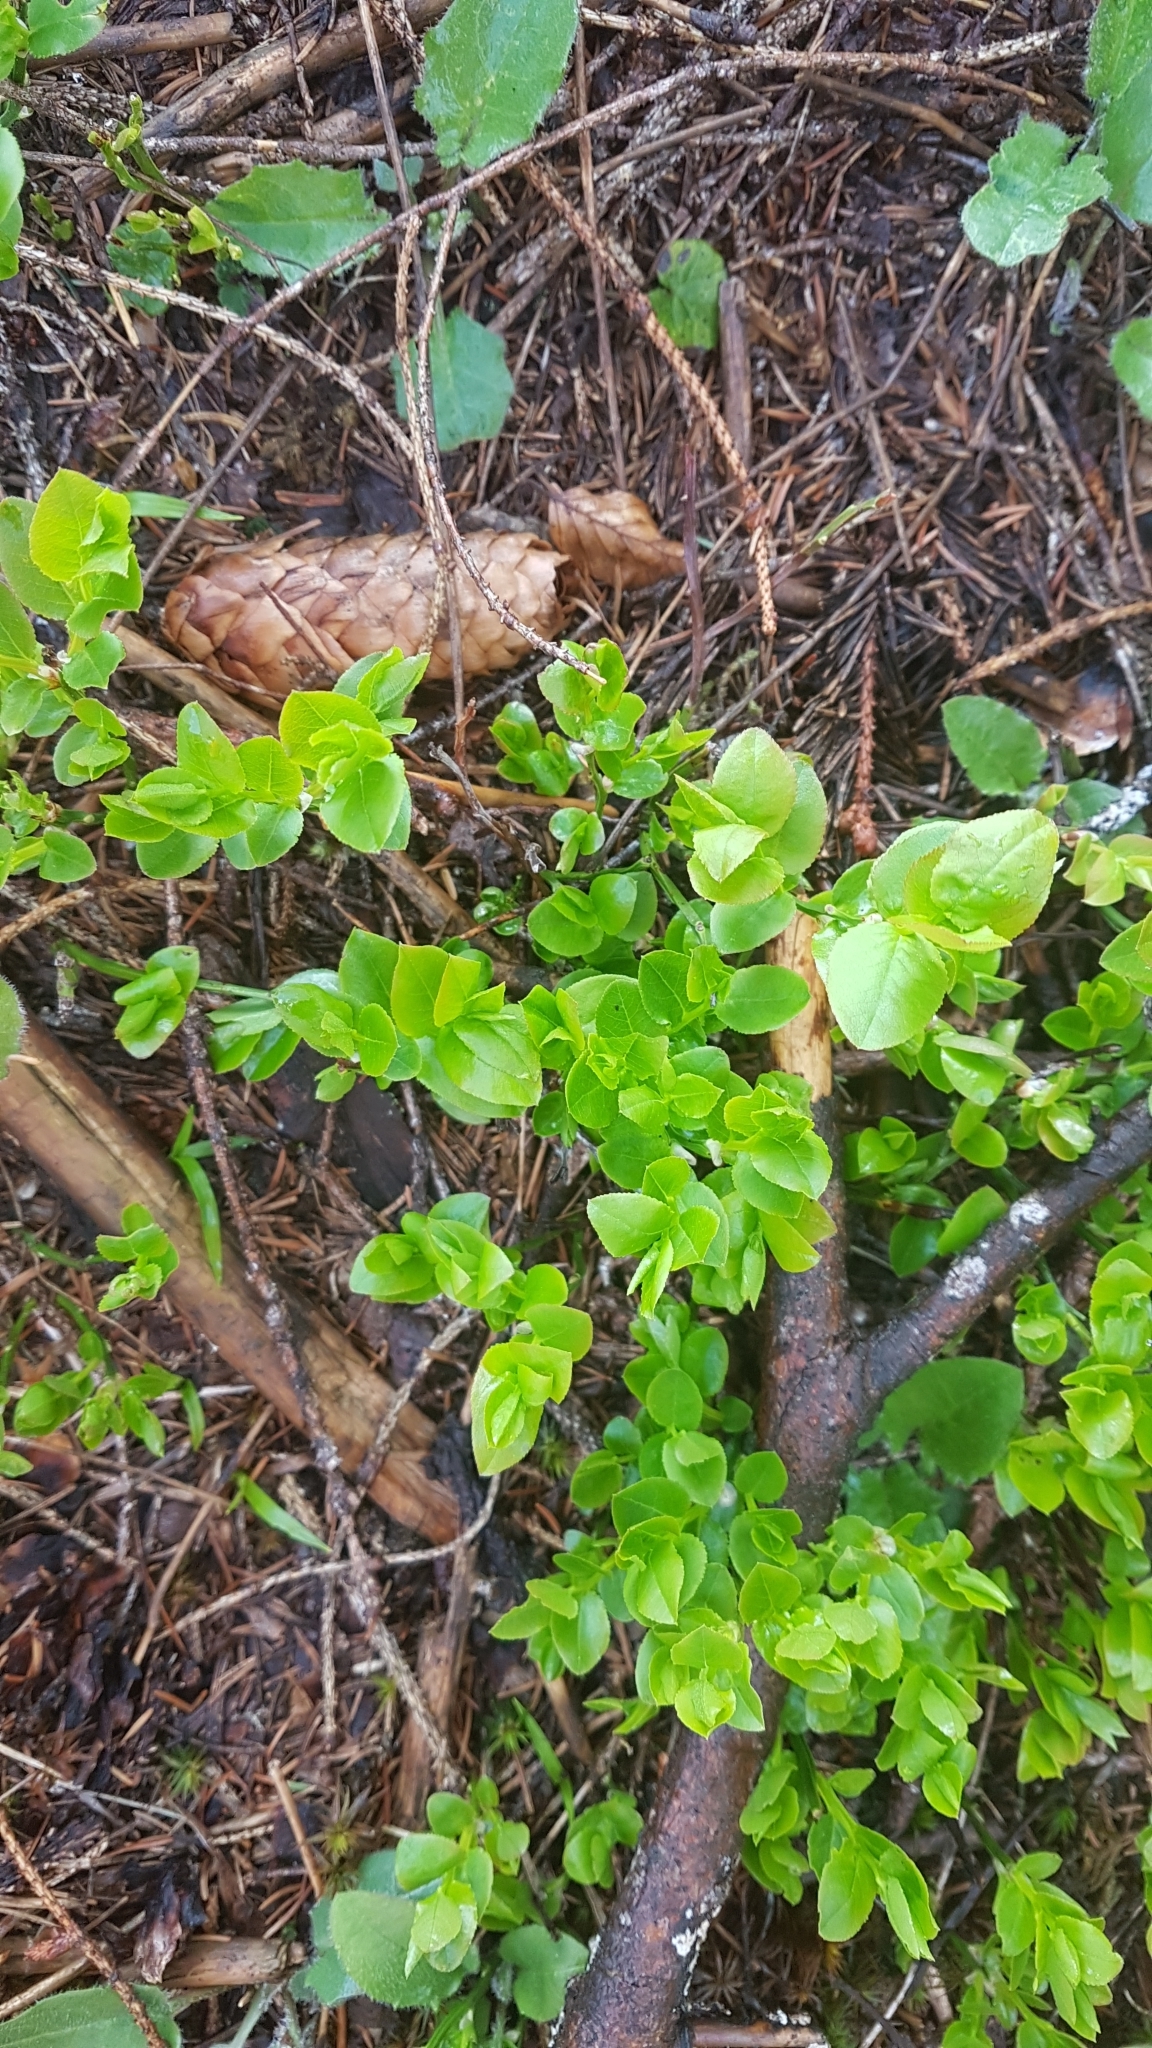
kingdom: Plantae
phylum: Tracheophyta
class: Magnoliopsida
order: Ericales
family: Ericaceae
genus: Vaccinium
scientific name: Vaccinium myrtillus
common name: Bilberry
